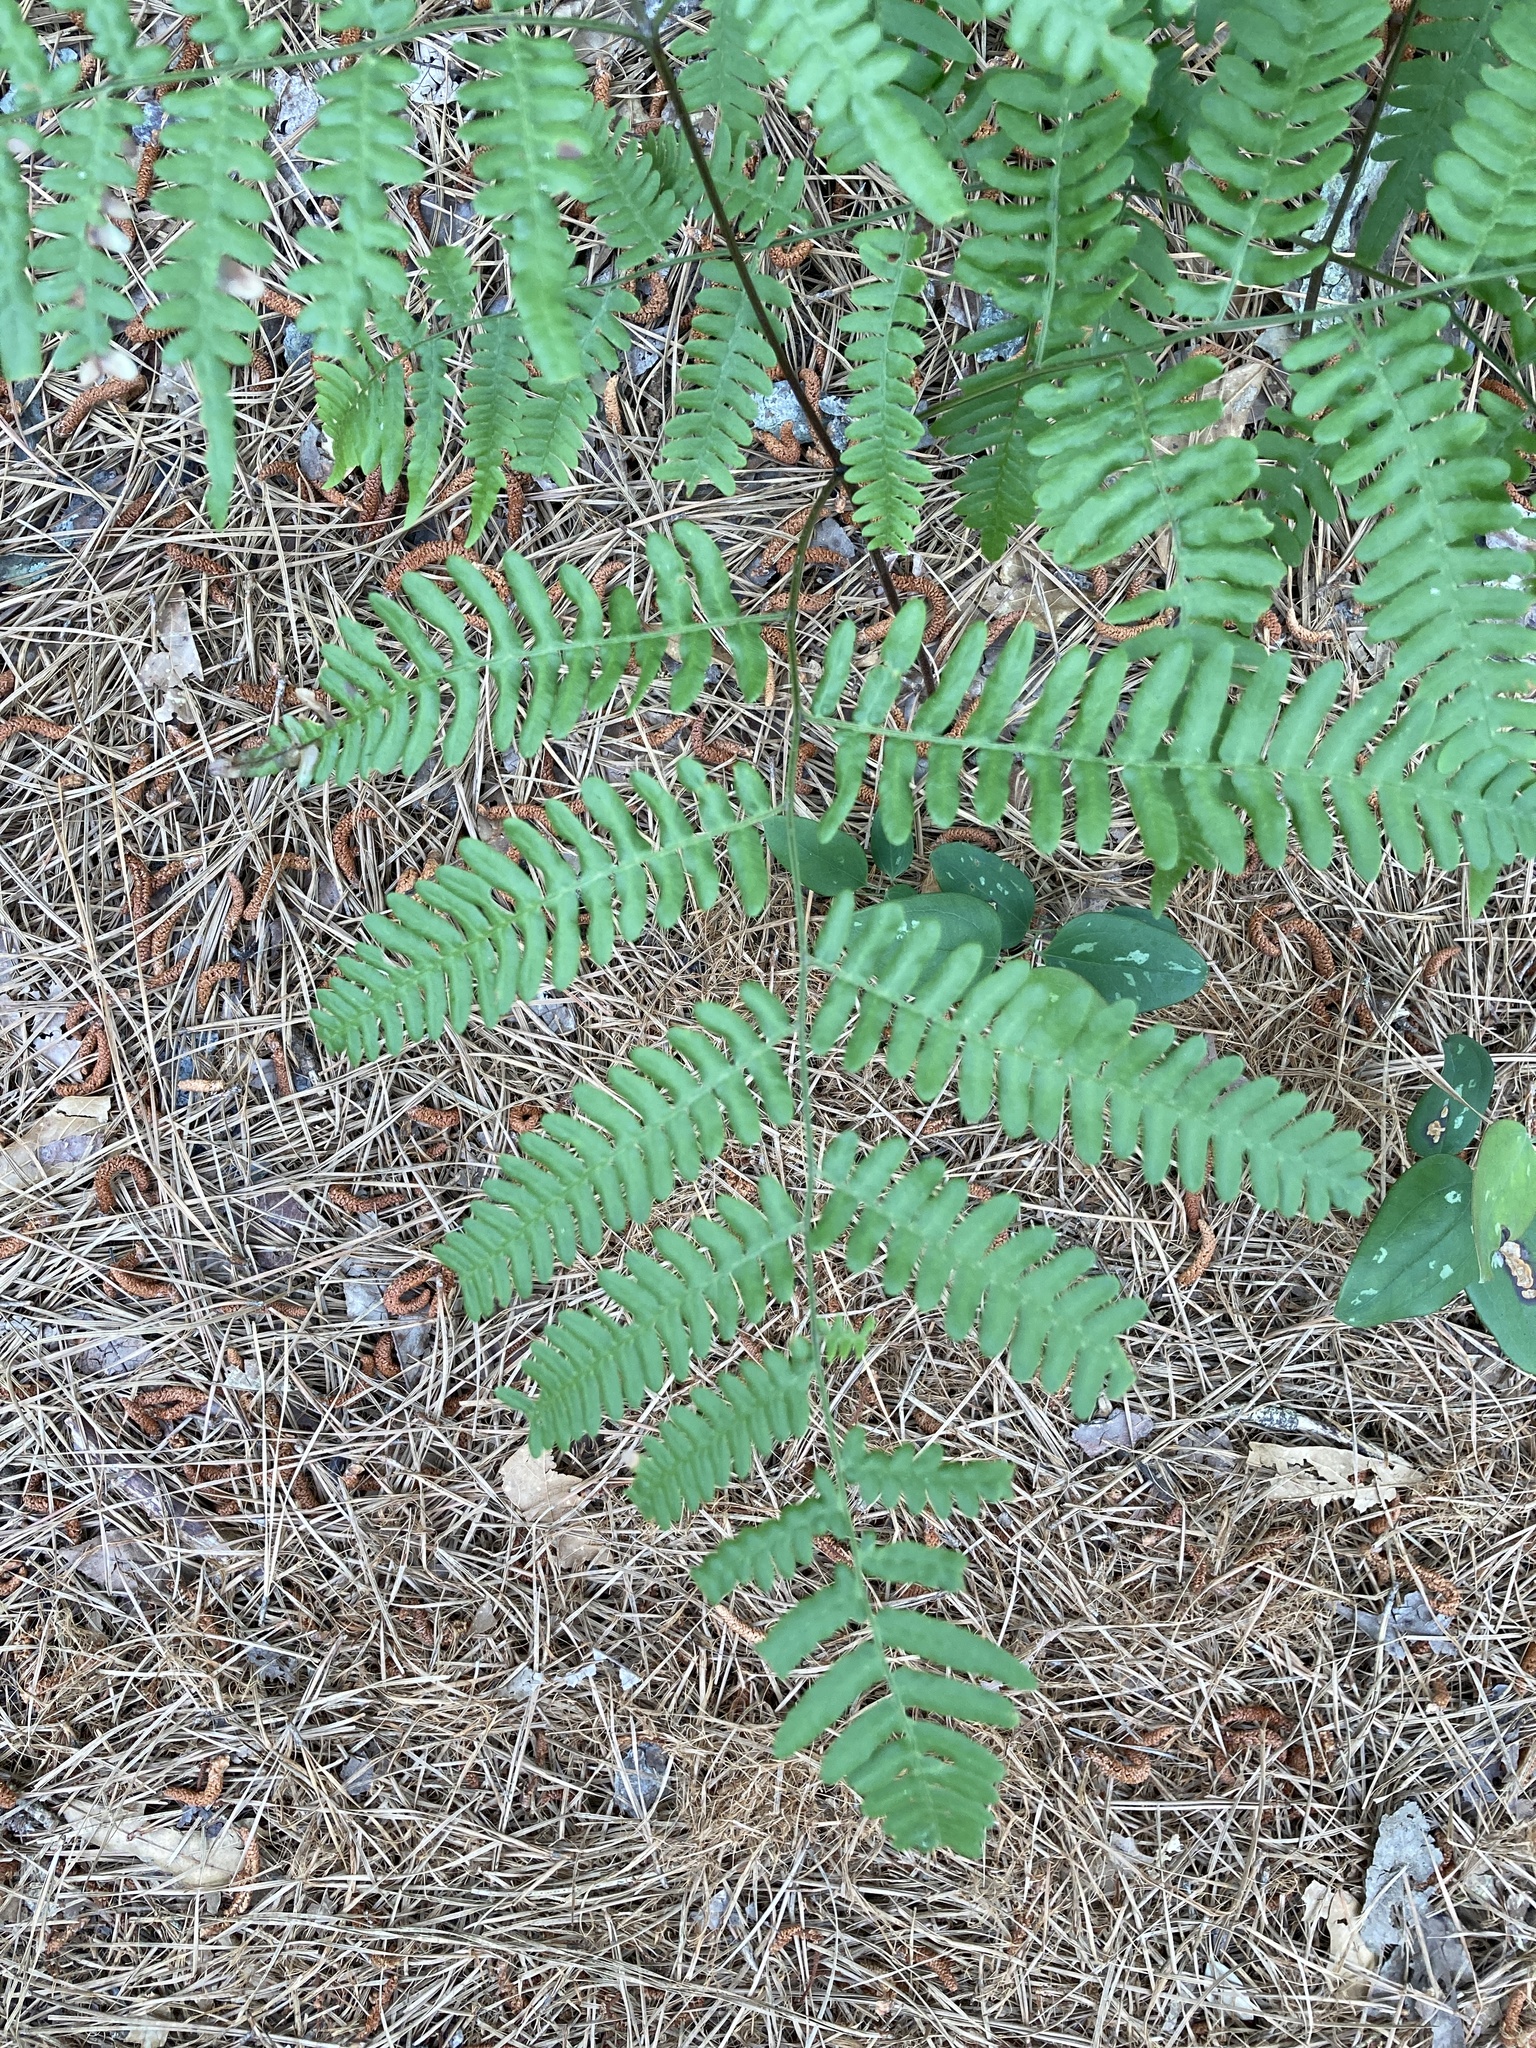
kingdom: Plantae
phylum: Tracheophyta
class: Polypodiopsida
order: Polypodiales
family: Dennstaedtiaceae
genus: Pteridium
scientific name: Pteridium aquilinum
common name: Bracken
